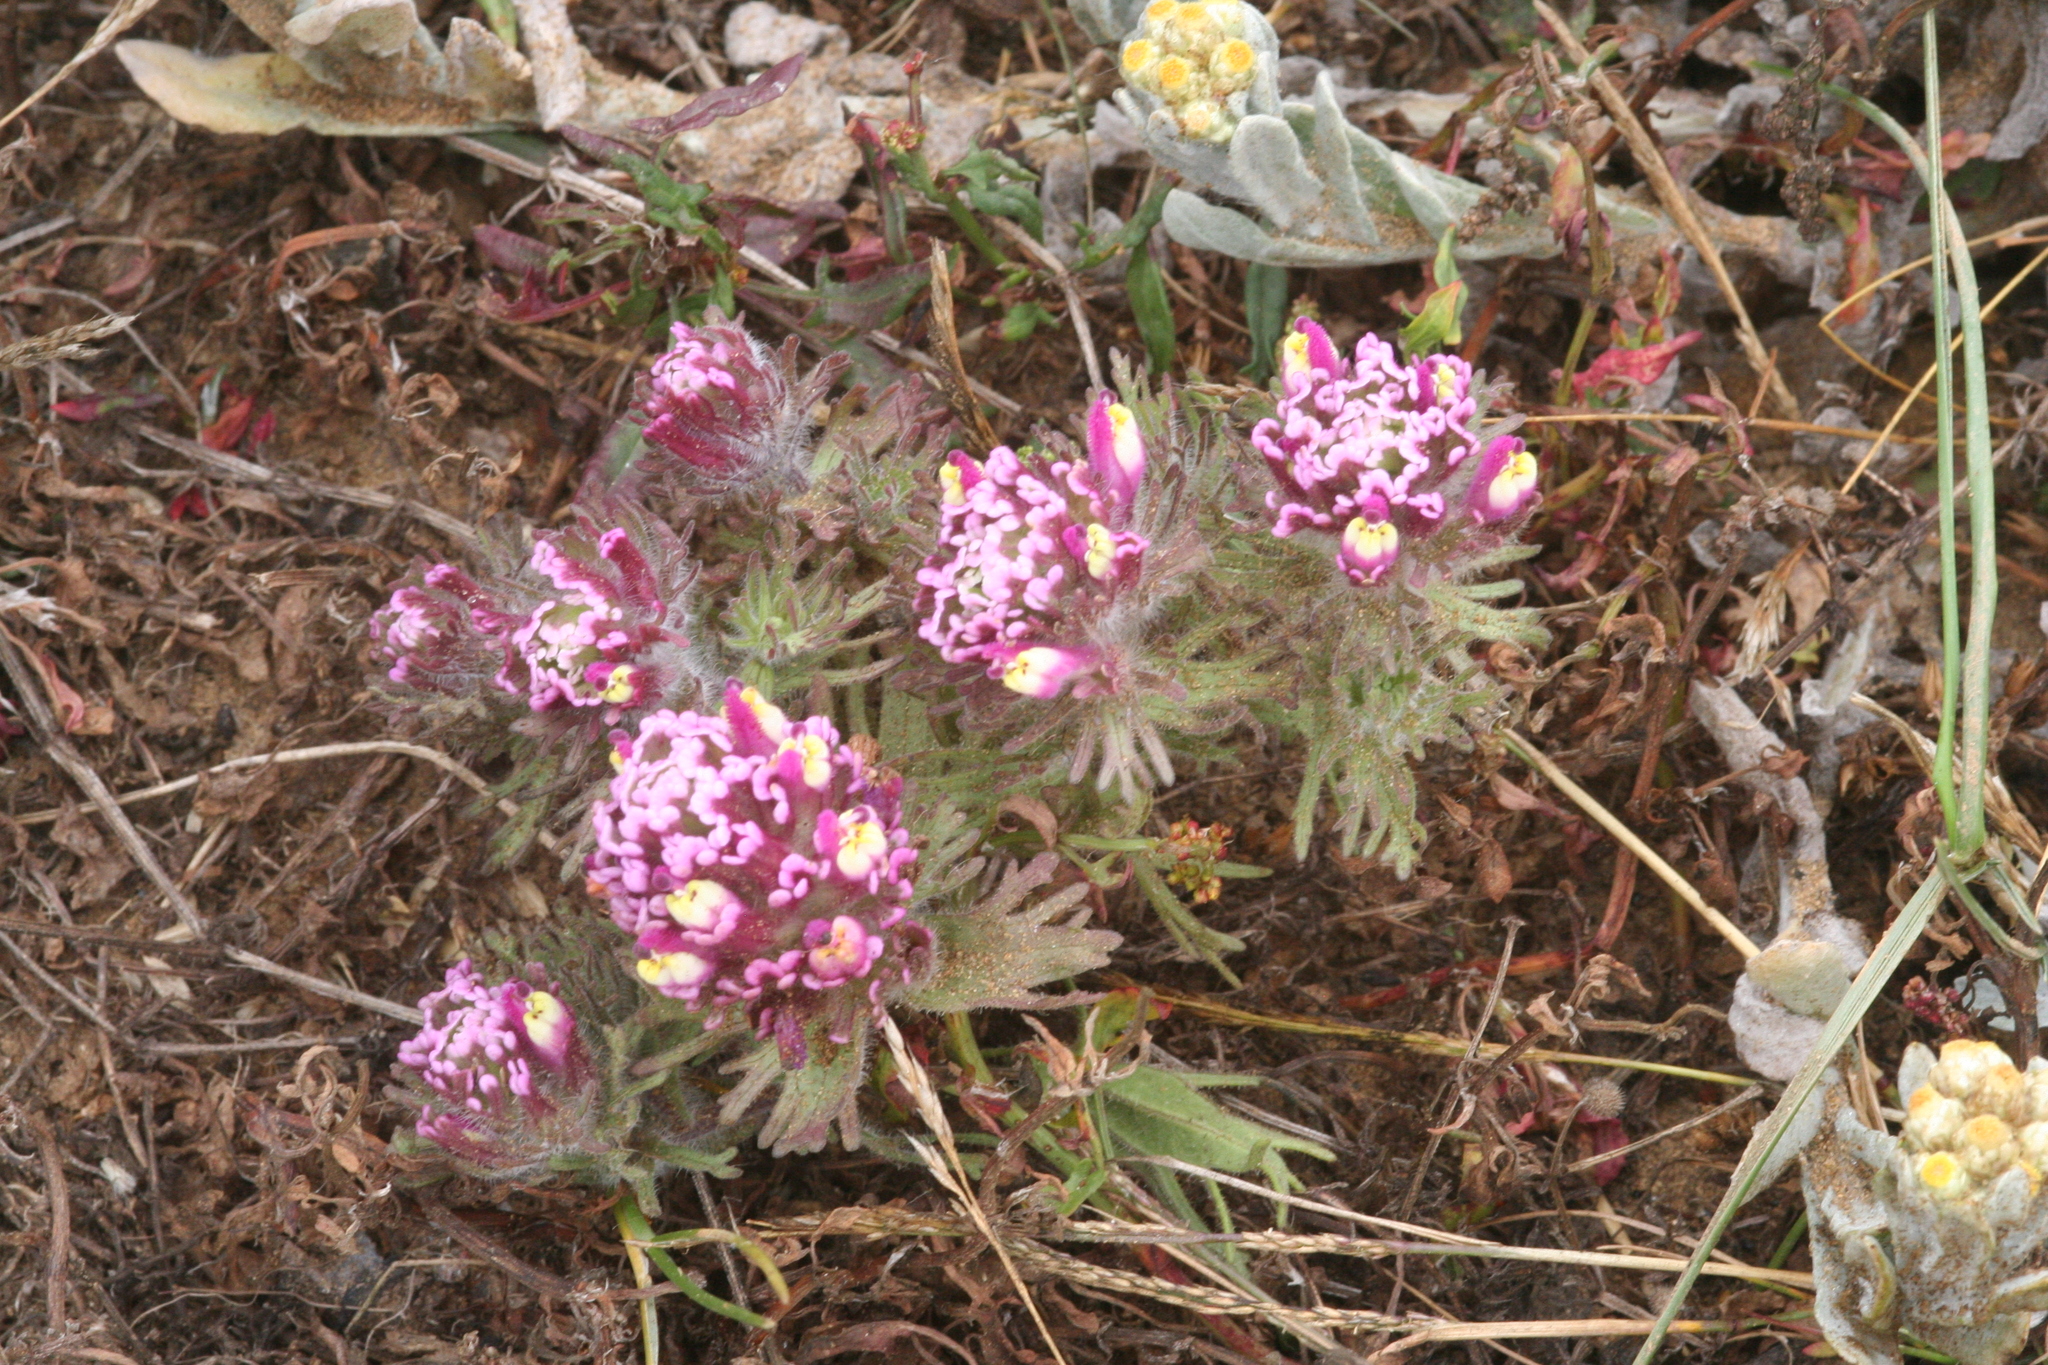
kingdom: Plantae
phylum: Tracheophyta
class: Magnoliopsida
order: Lamiales
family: Orobanchaceae
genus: Castilleja
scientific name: Castilleja exserta
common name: Purple owl-clover
